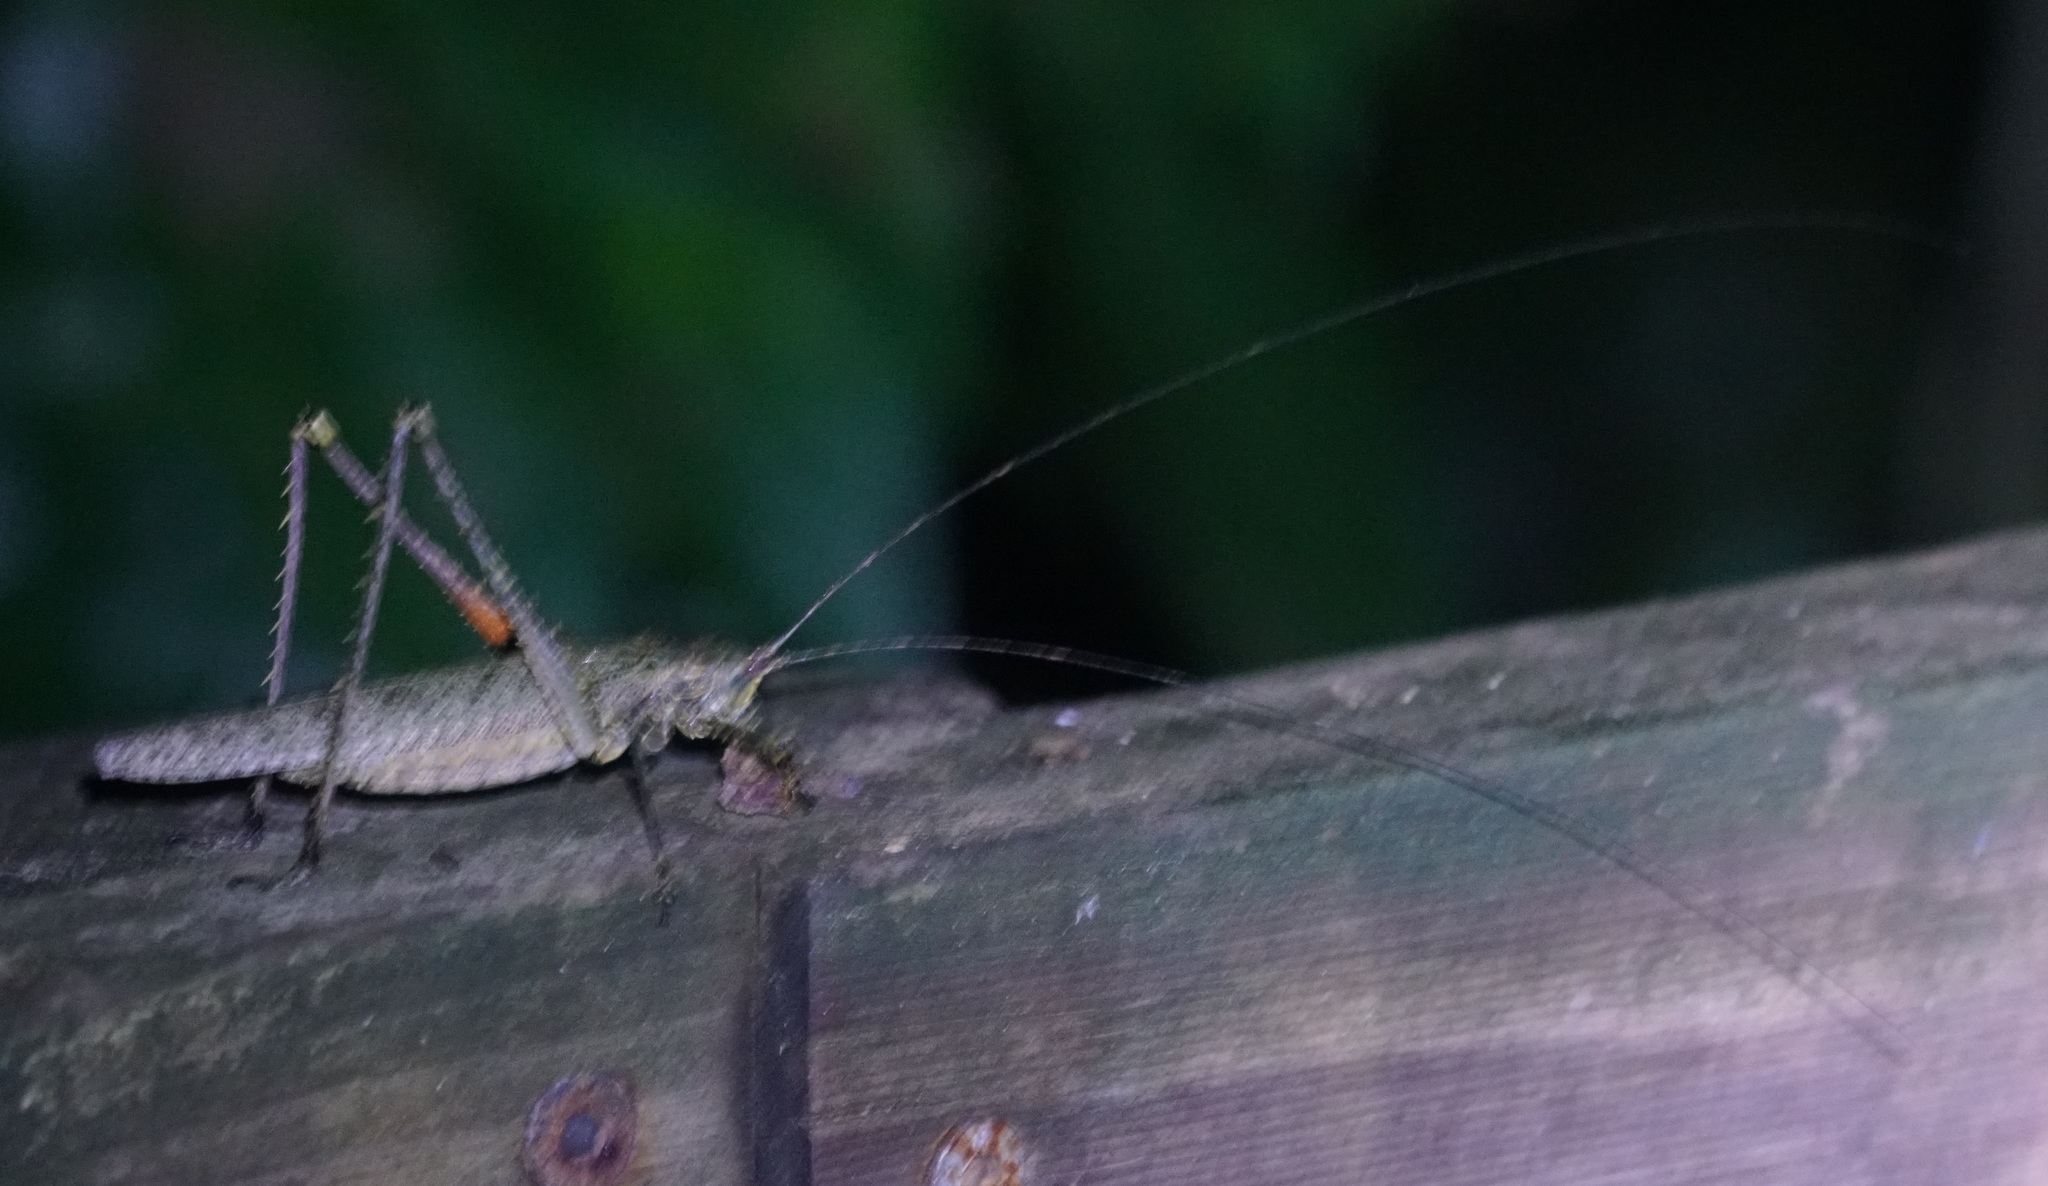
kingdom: Animalia
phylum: Arthropoda
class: Insecta
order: Orthoptera
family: Tettigoniidae
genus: Phricta
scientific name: Phricta spinosa
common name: Giant spiny forest katydid
